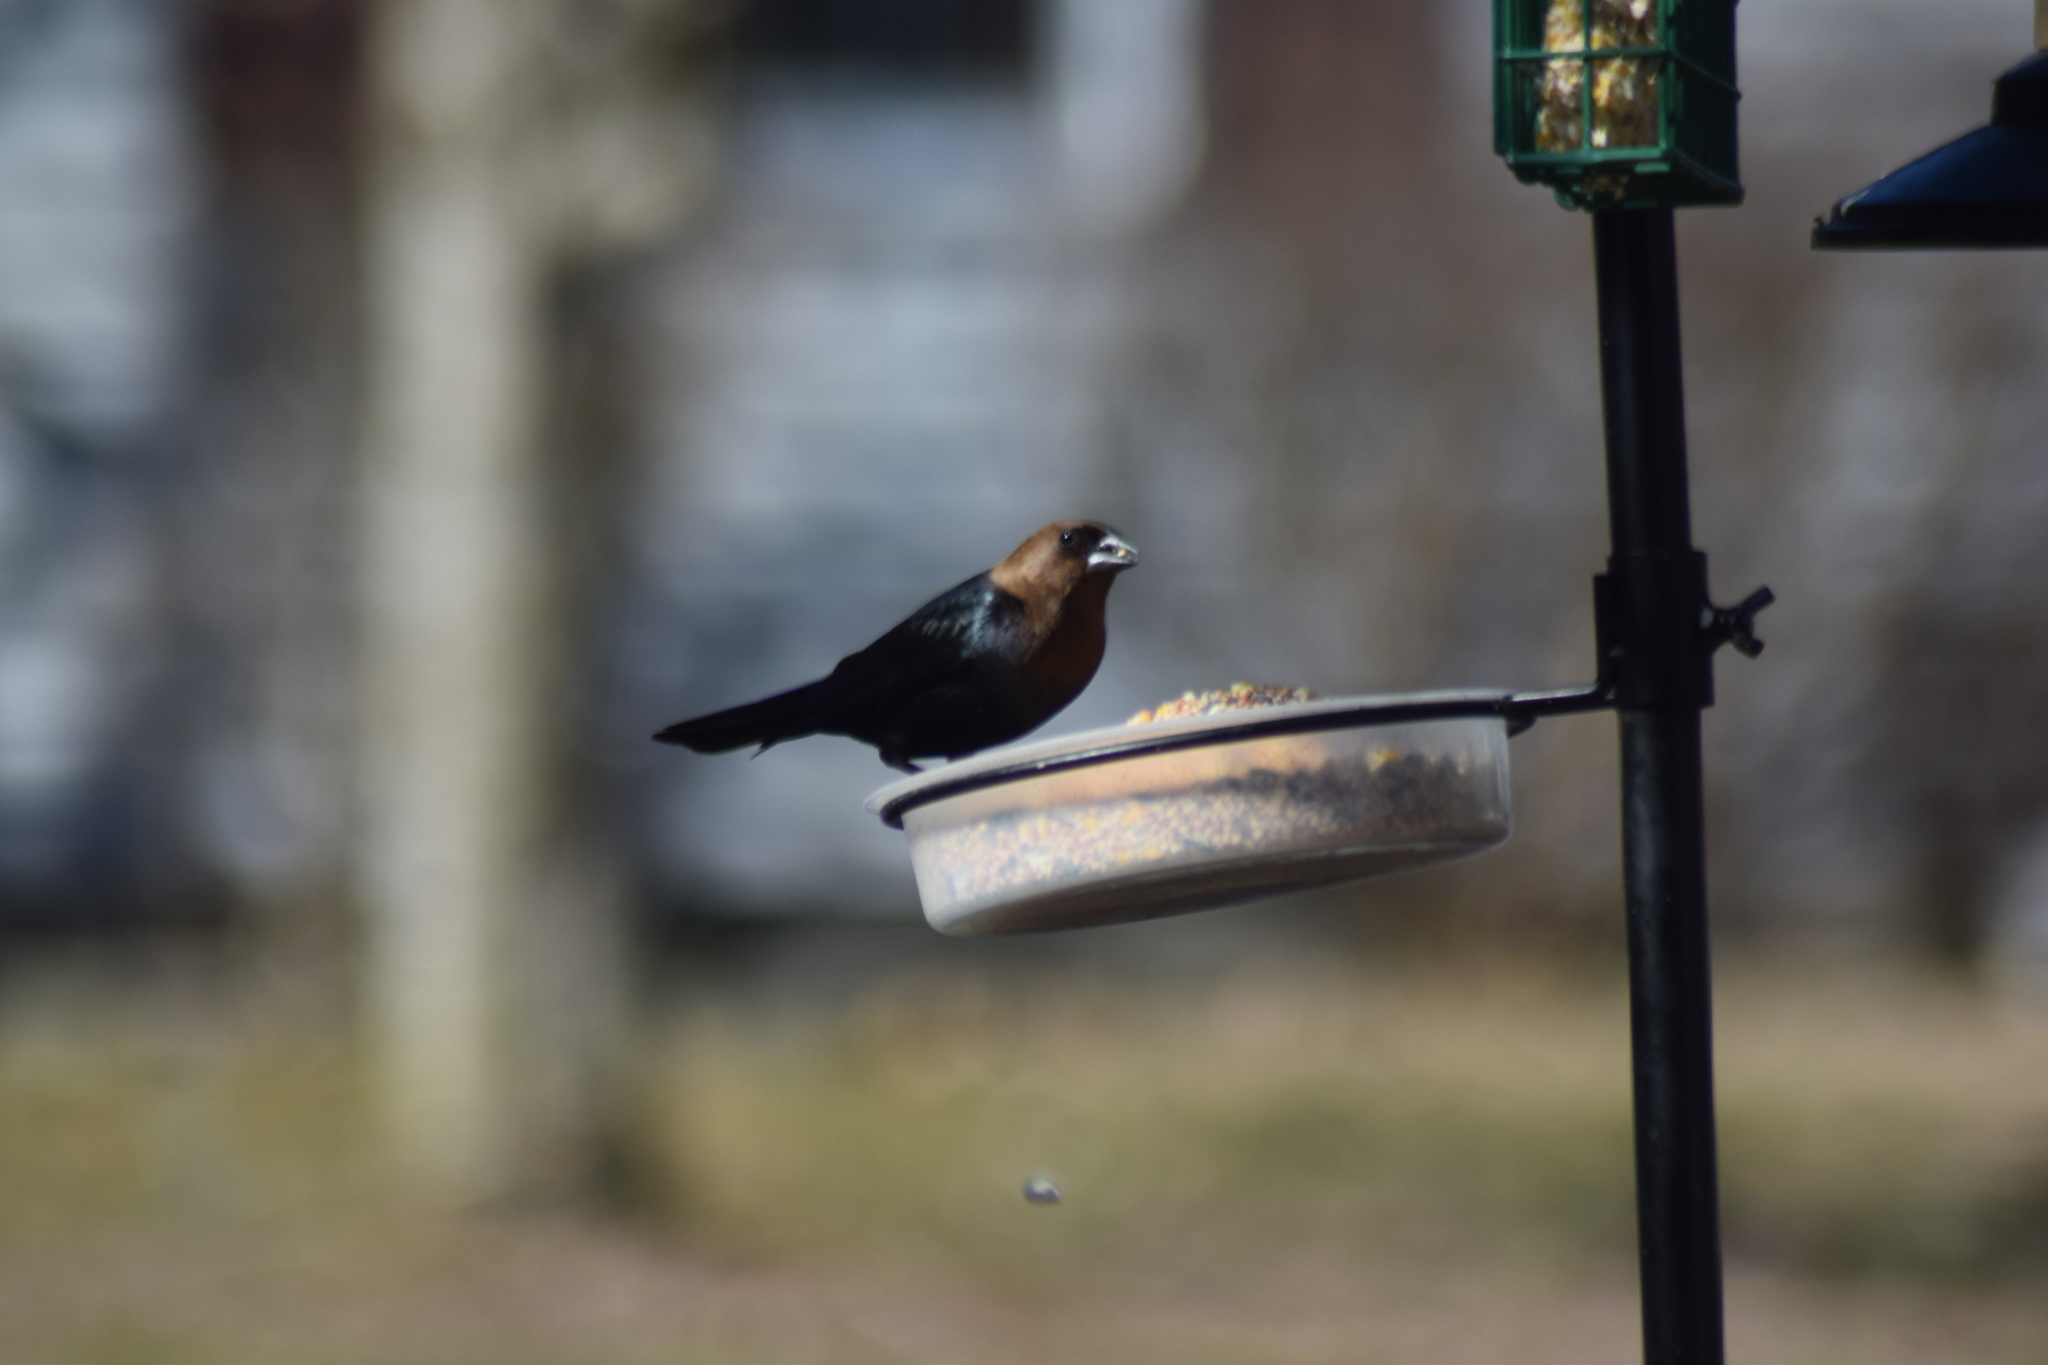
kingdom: Animalia
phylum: Chordata
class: Aves
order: Passeriformes
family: Icteridae
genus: Molothrus
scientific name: Molothrus ater
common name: Brown-headed cowbird
